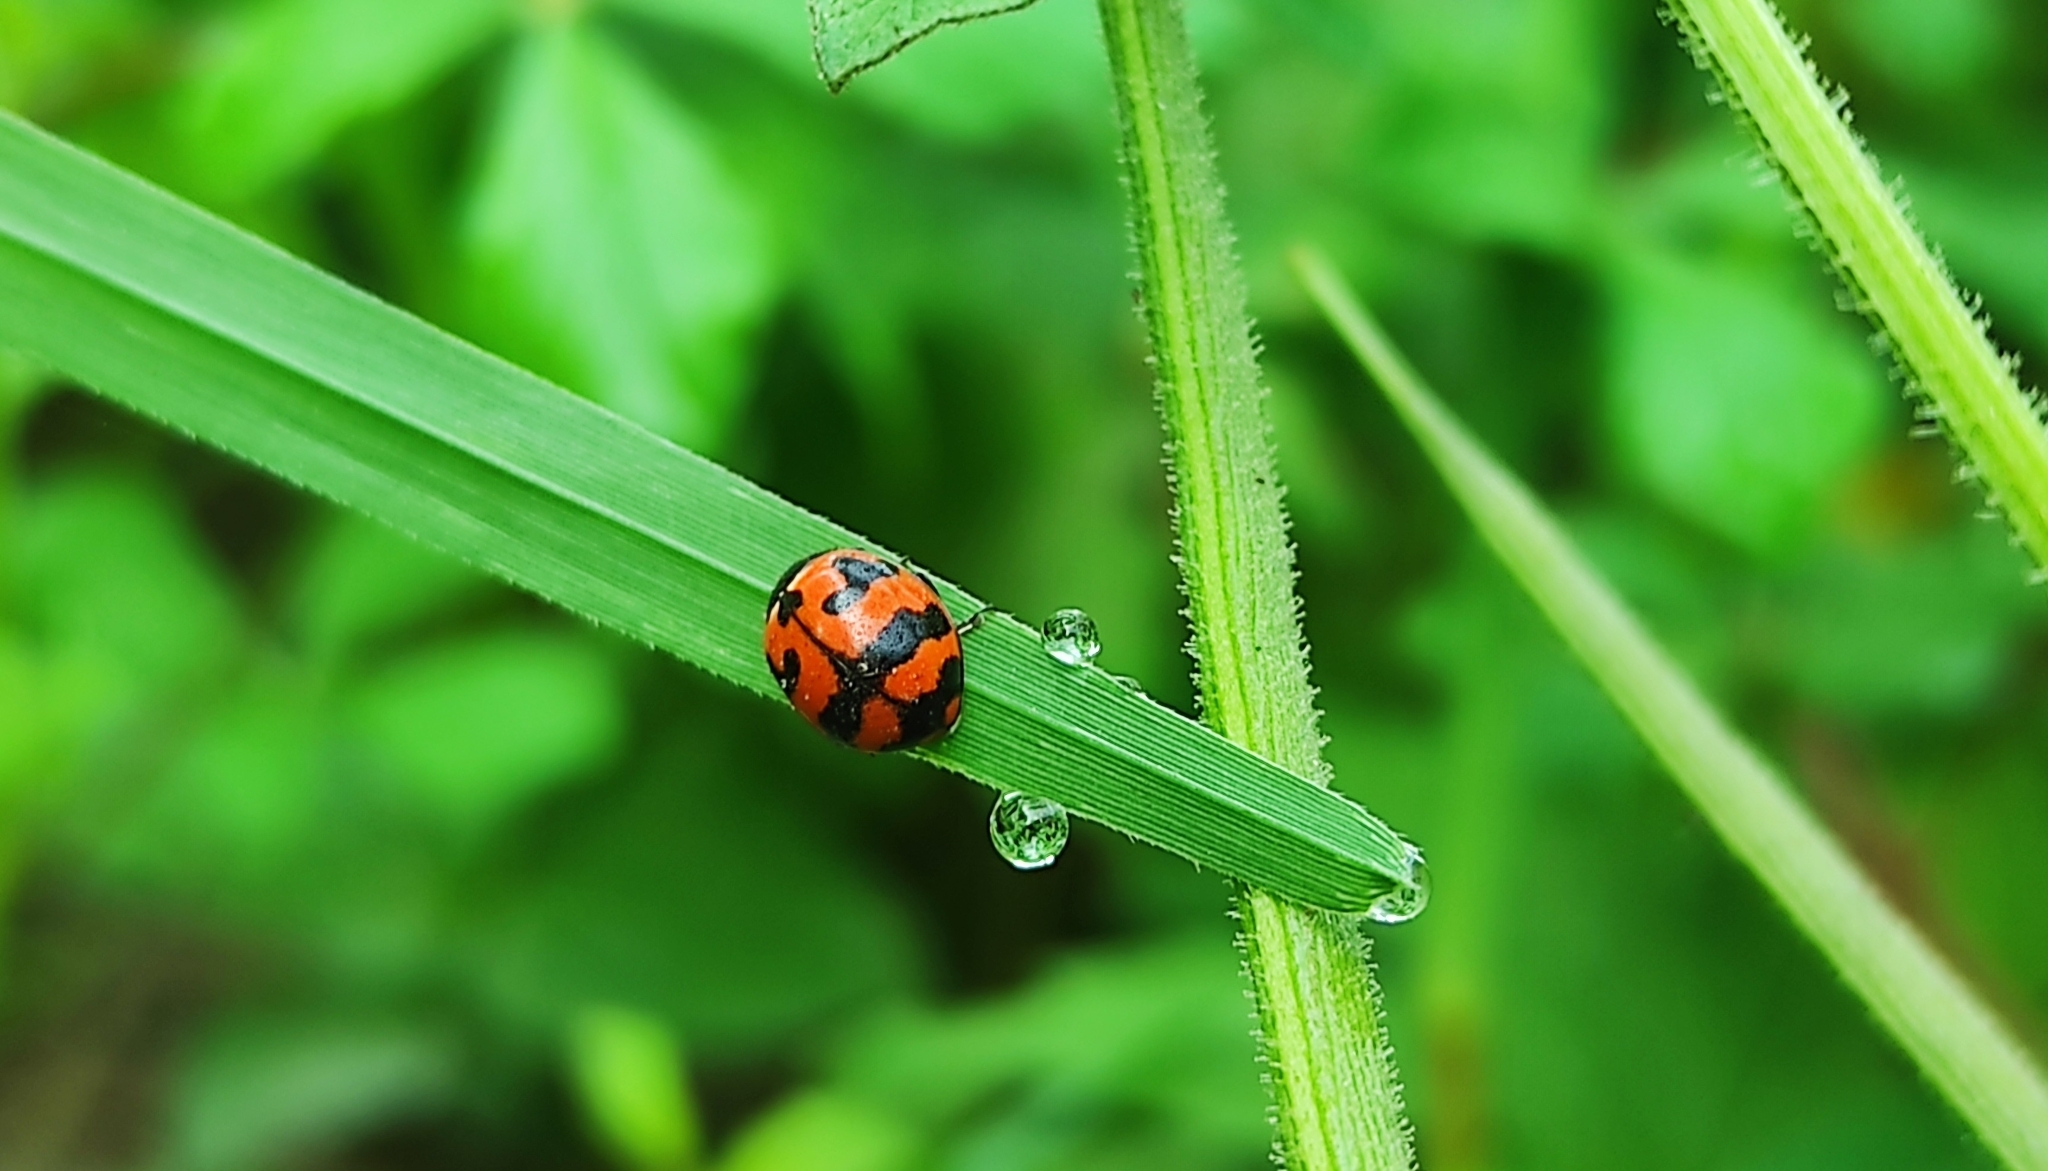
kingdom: Animalia
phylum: Arthropoda
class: Insecta
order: Coleoptera
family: Coccinellidae
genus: Coccinella
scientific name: Coccinella transversalis
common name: Transverse lady beetle
